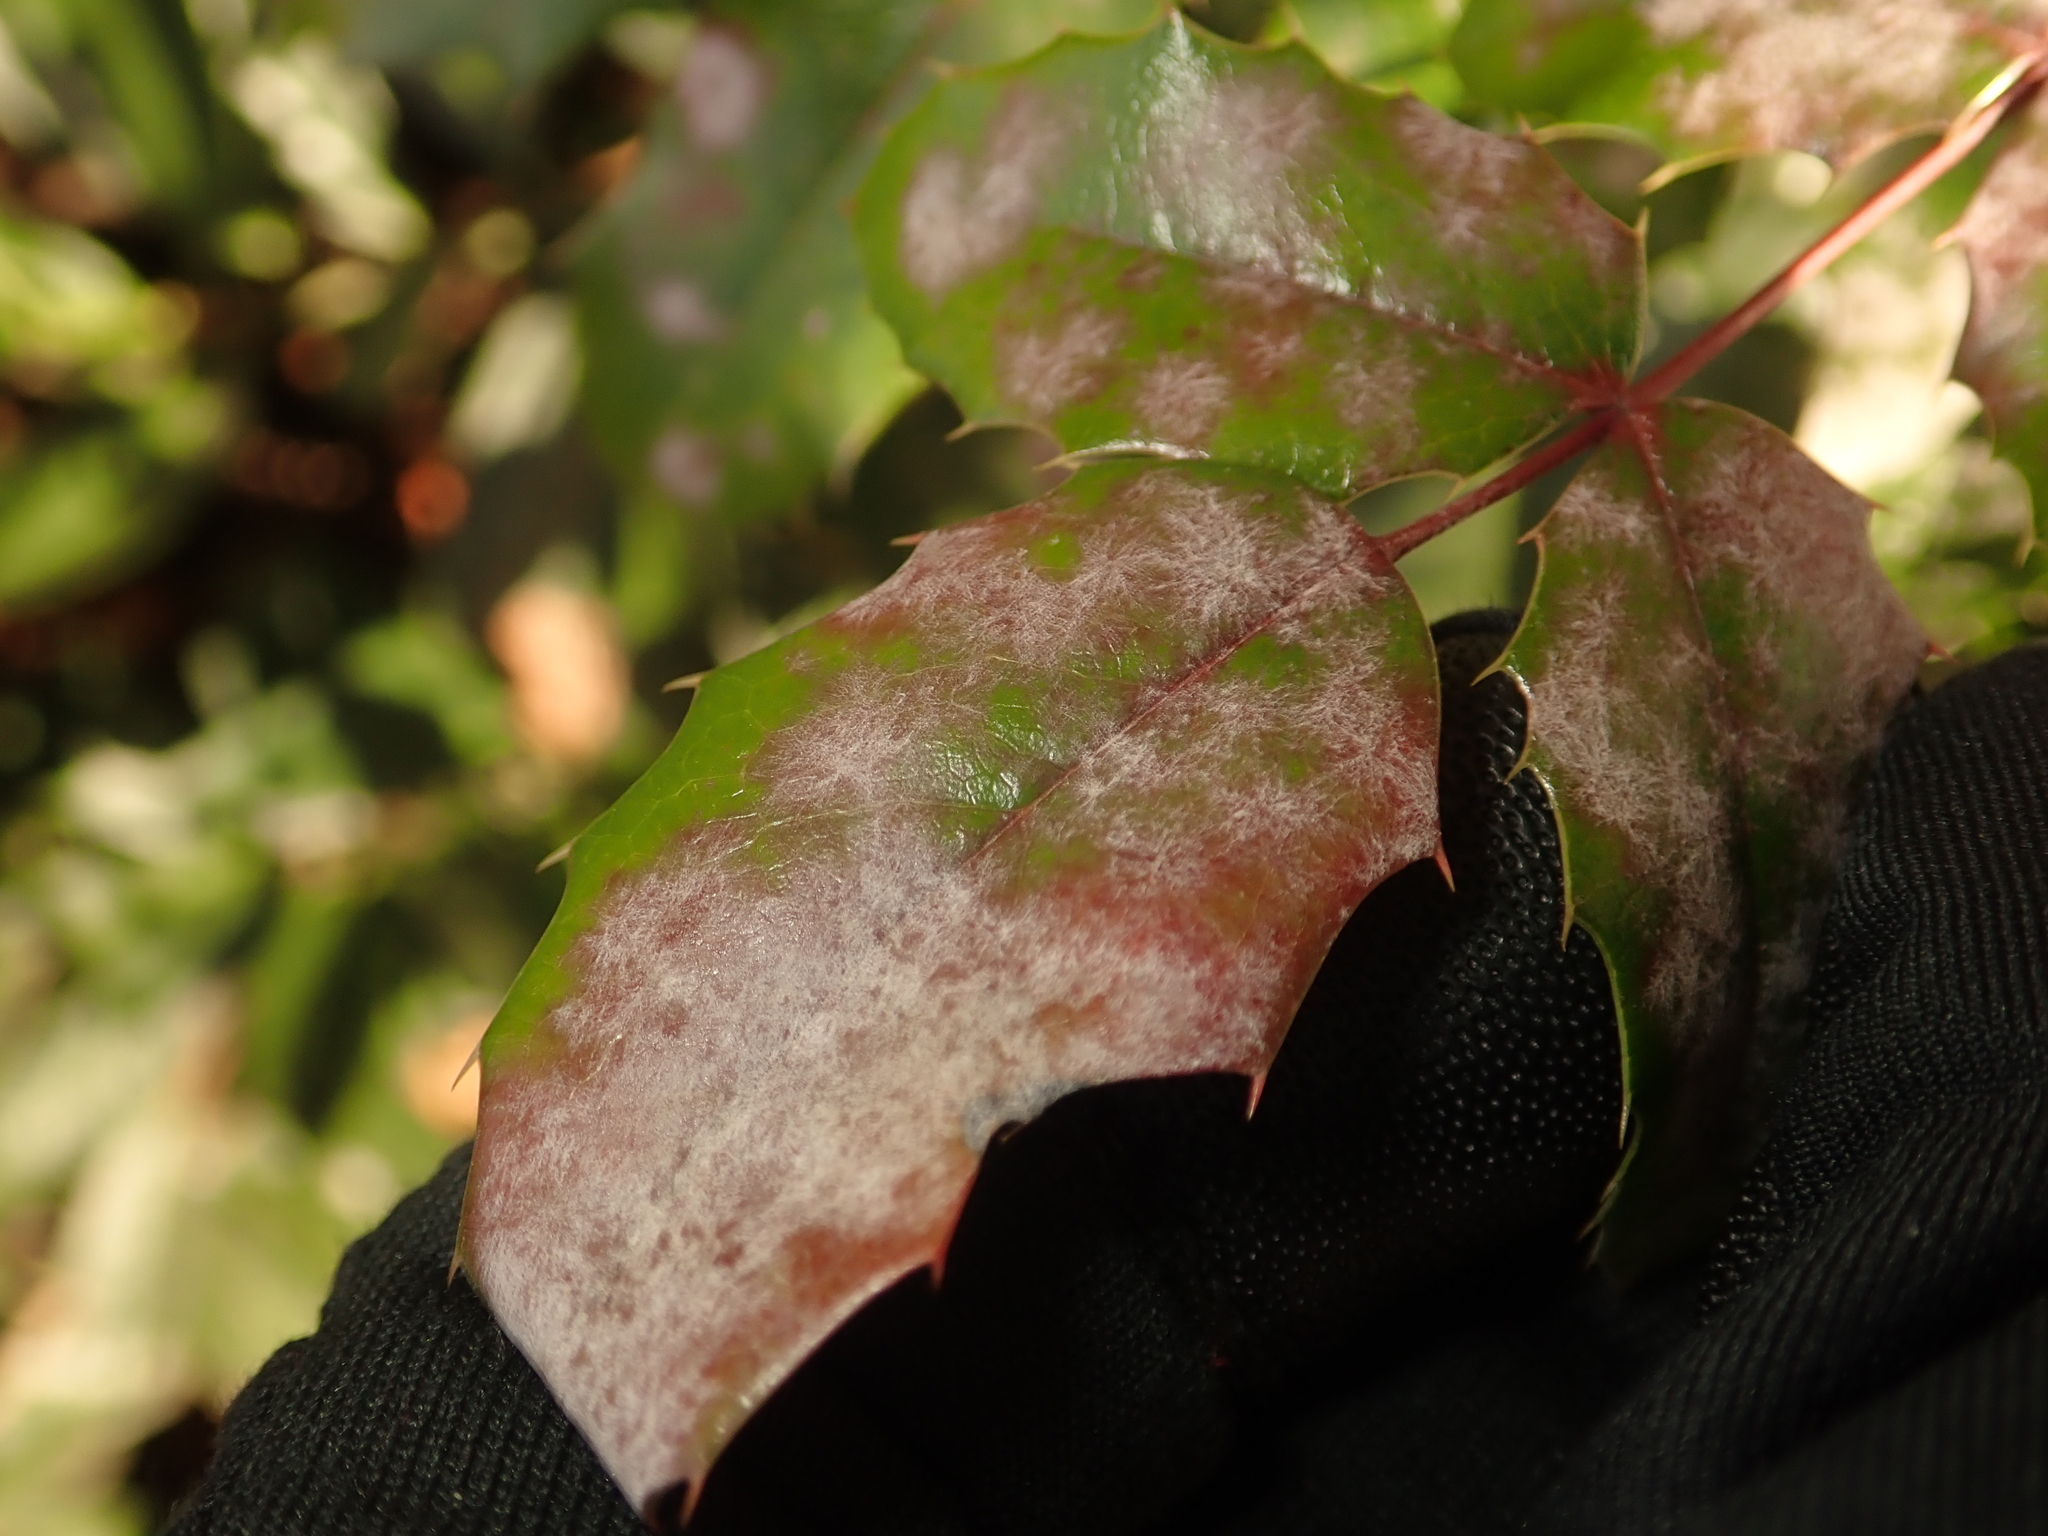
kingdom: Fungi
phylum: Ascomycota
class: Leotiomycetes
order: Helotiales
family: Erysiphaceae
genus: Erysiphe
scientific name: Erysiphe berberidis
